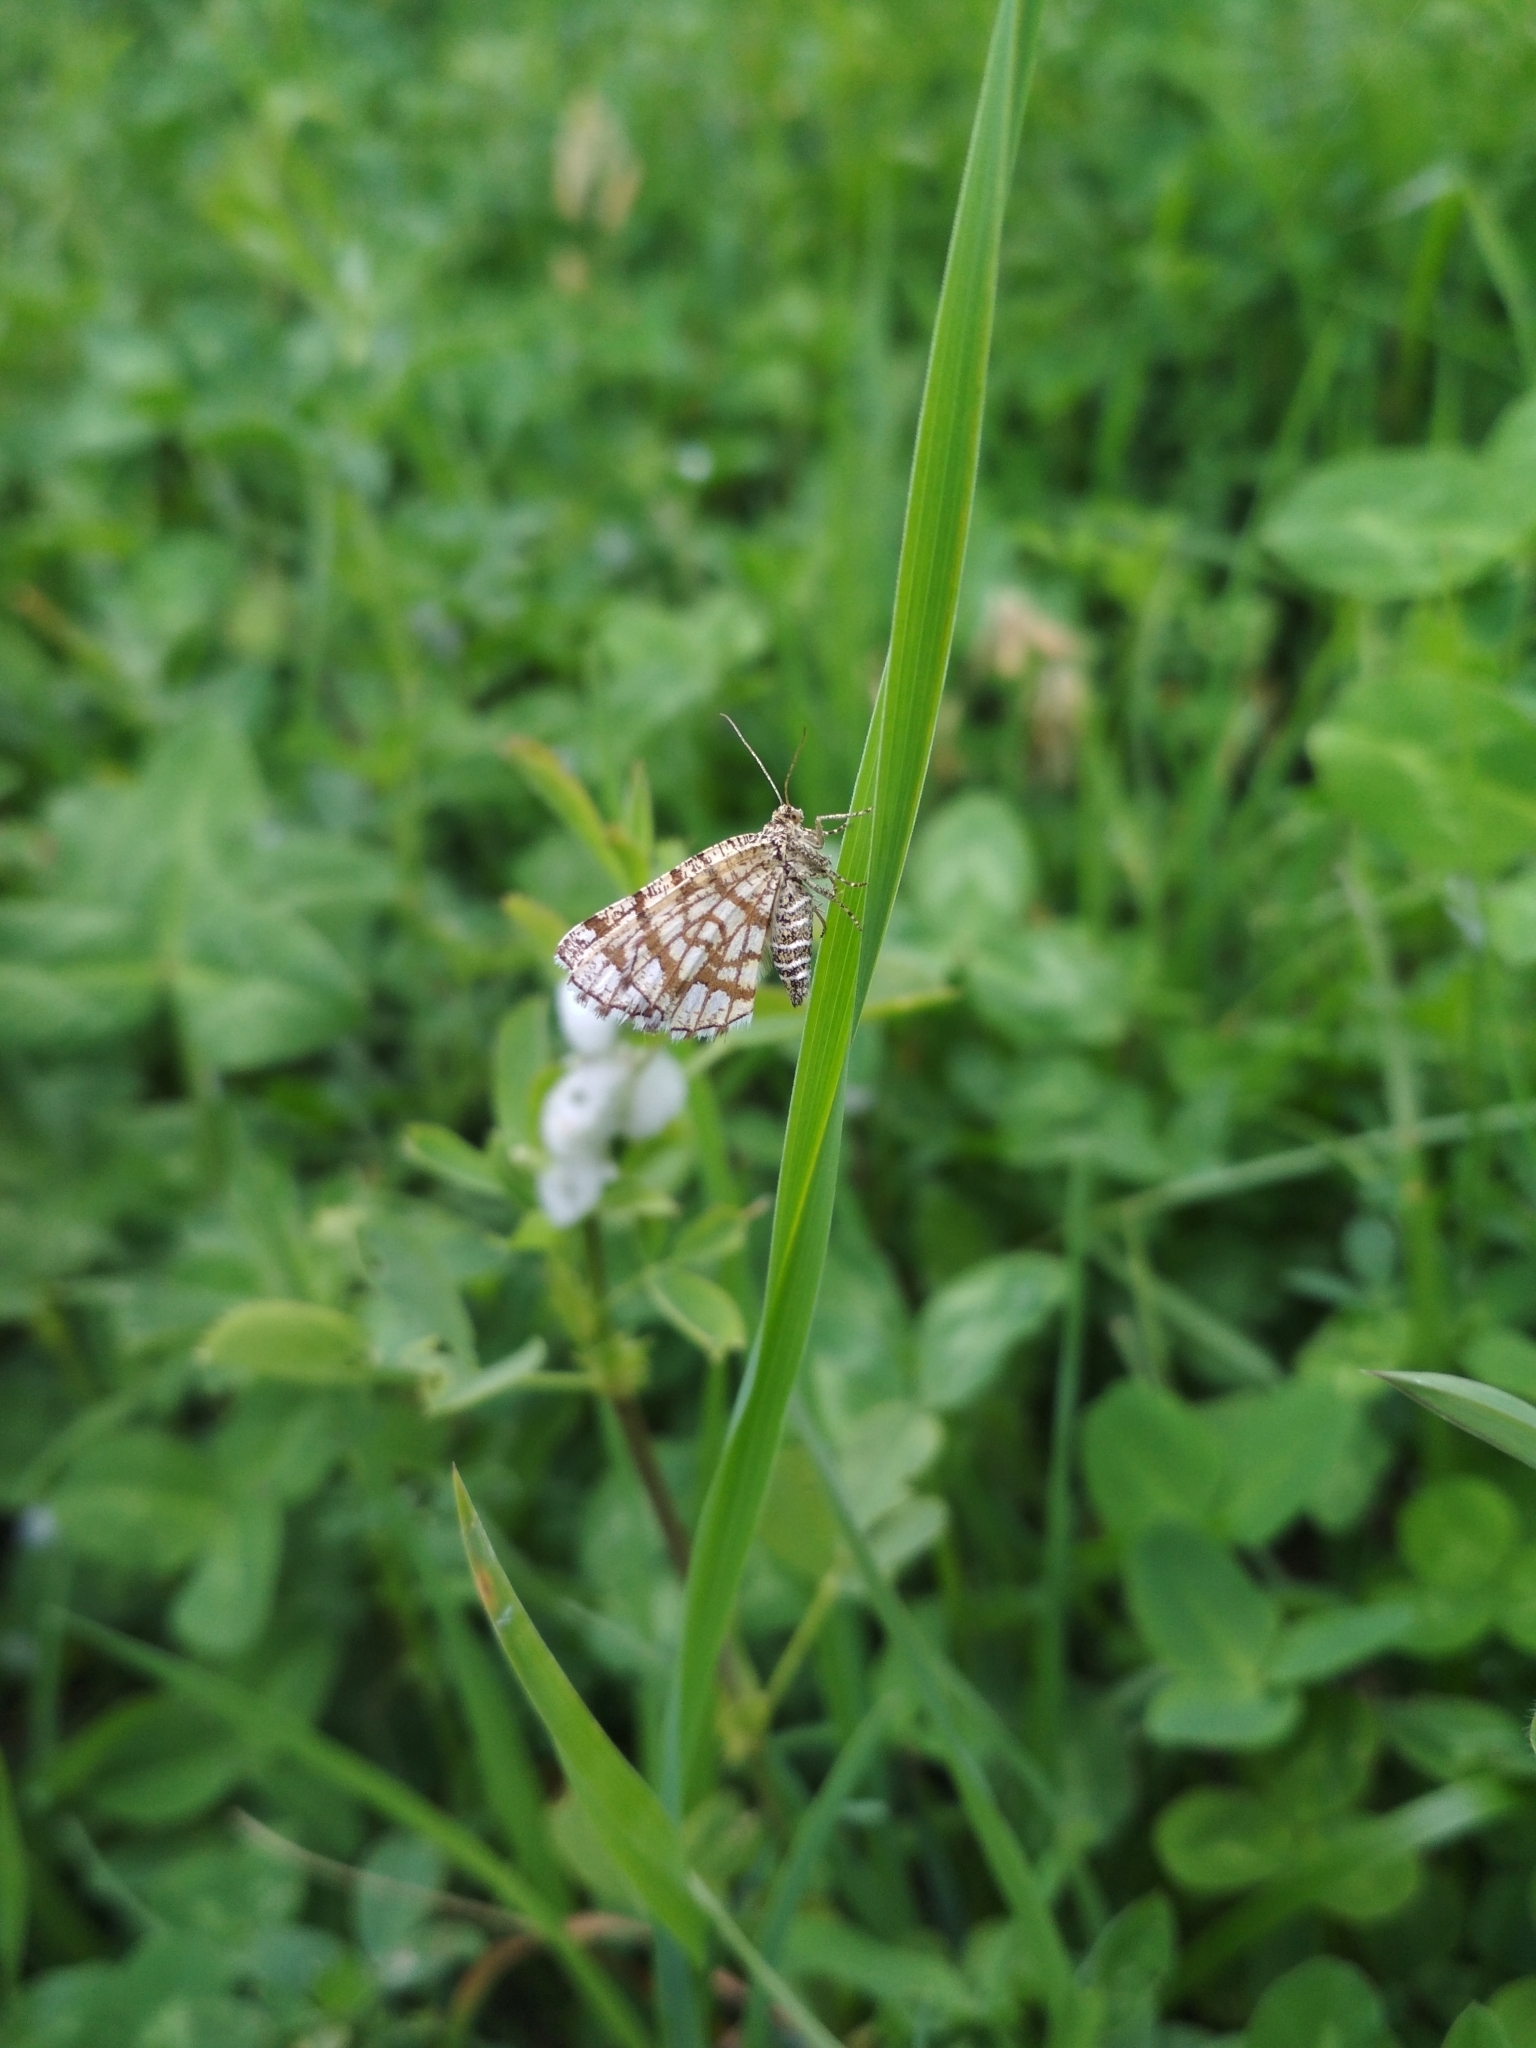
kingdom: Animalia
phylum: Arthropoda
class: Insecta
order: Lepidoptera
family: Geometridae
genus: Chiasmia
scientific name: Chiasmia clathrata
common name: Latticed heath
